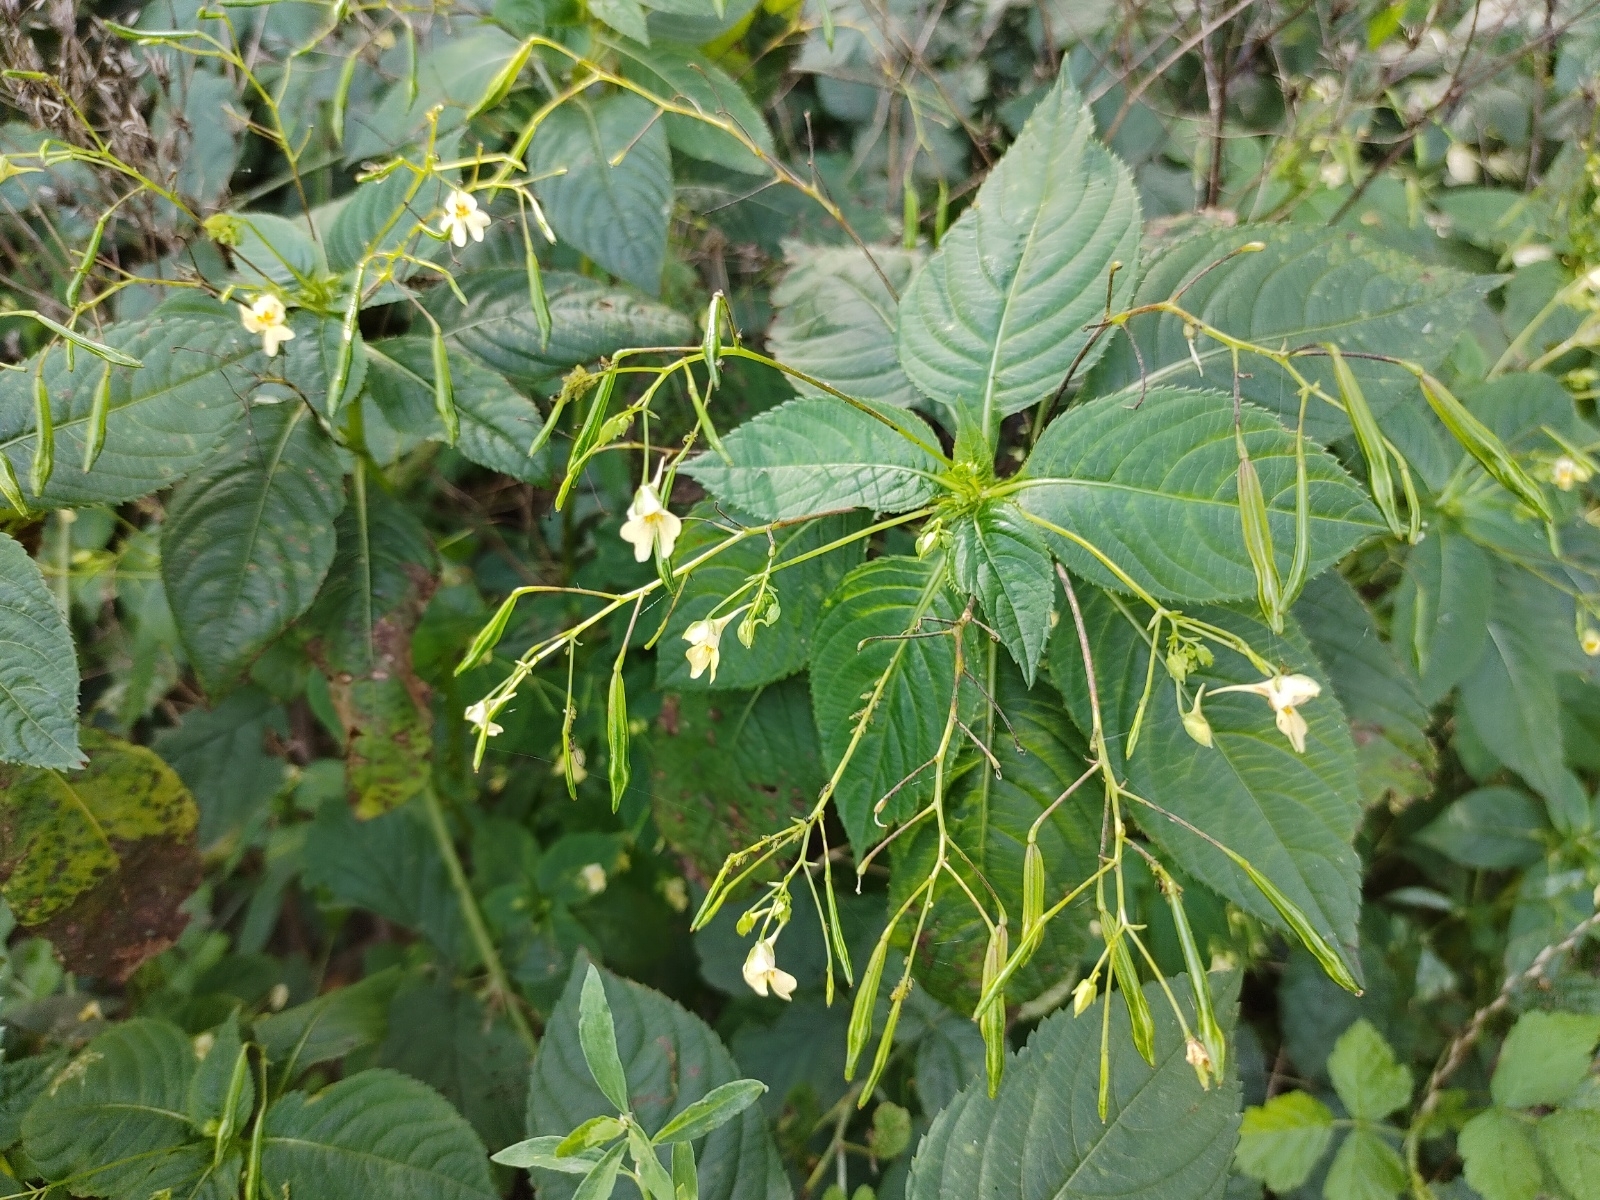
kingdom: Plantae
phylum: Tracheophyta
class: Magnoliopsida
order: Ericales
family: Balsaminaceae
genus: Impatiens
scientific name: Impatiens parviflora
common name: Small balsam
